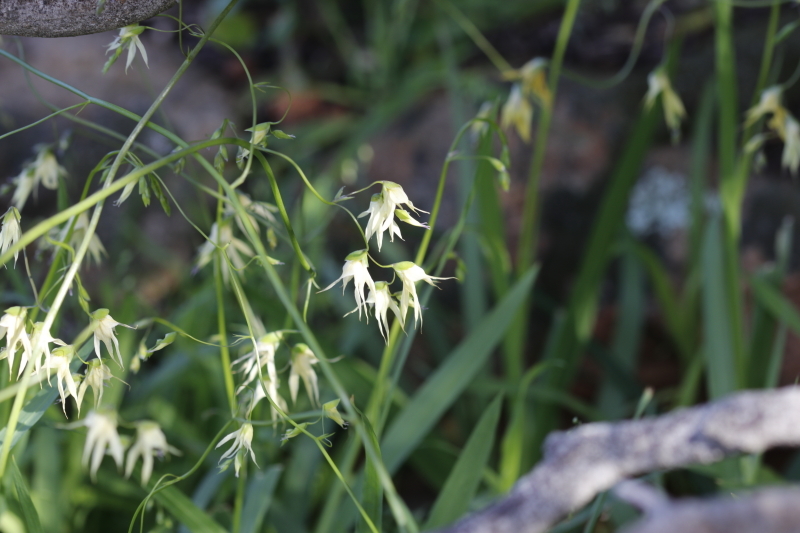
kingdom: Plantae
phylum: Tracheophyta
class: Liliopsida
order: Asparagales
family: Iridaceae
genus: Melasphaerula
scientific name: Melasphaerula graminea
